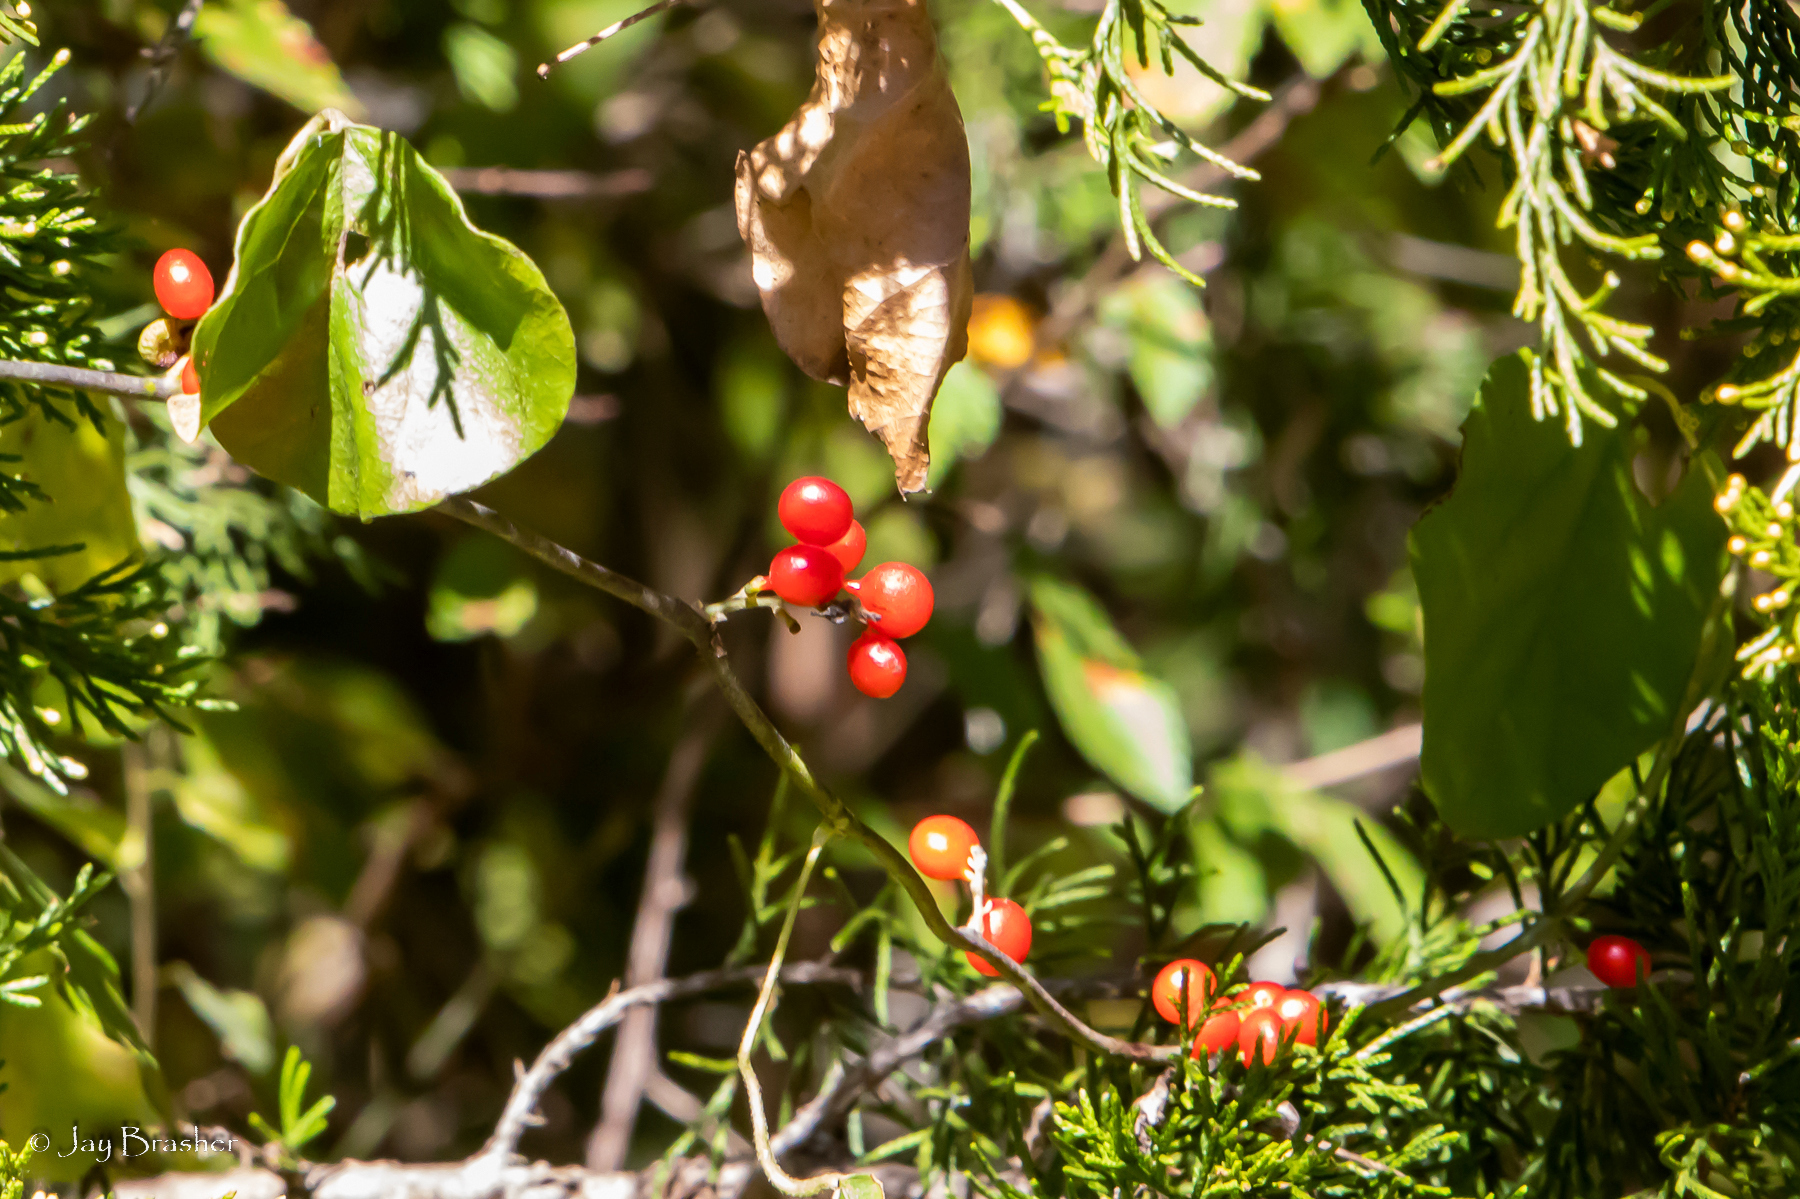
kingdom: Plantae
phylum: Tracheophyta
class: Magnoliopsida
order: Ranunculales
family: Menispermaceae
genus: Cocculus
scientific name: Cocculus carolinus
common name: Carolina moonseed
